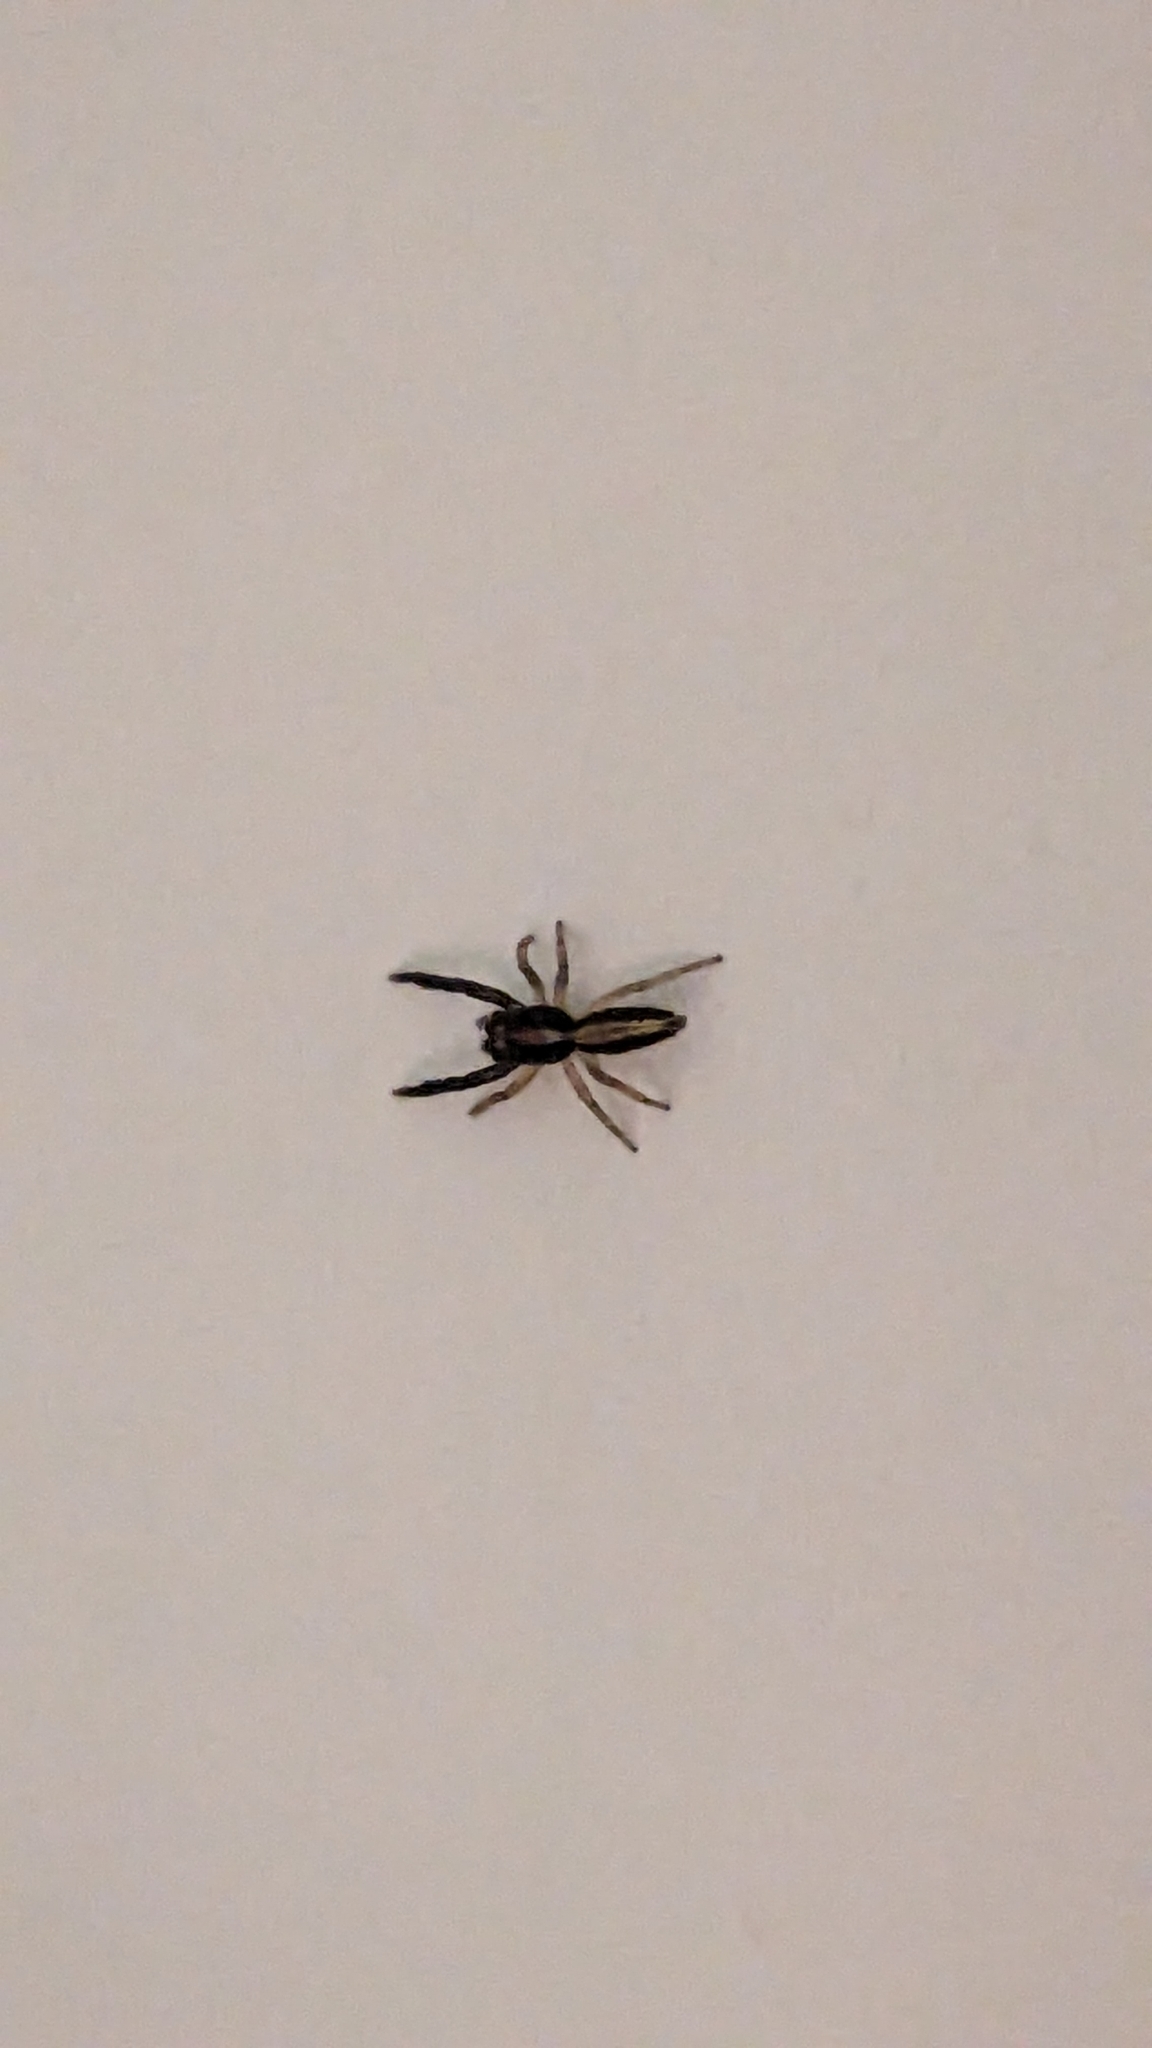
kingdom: Animalia
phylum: Arthropoda
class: Arachnida
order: Araneae
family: Salticidae
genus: Trite
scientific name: Trite planiceps
